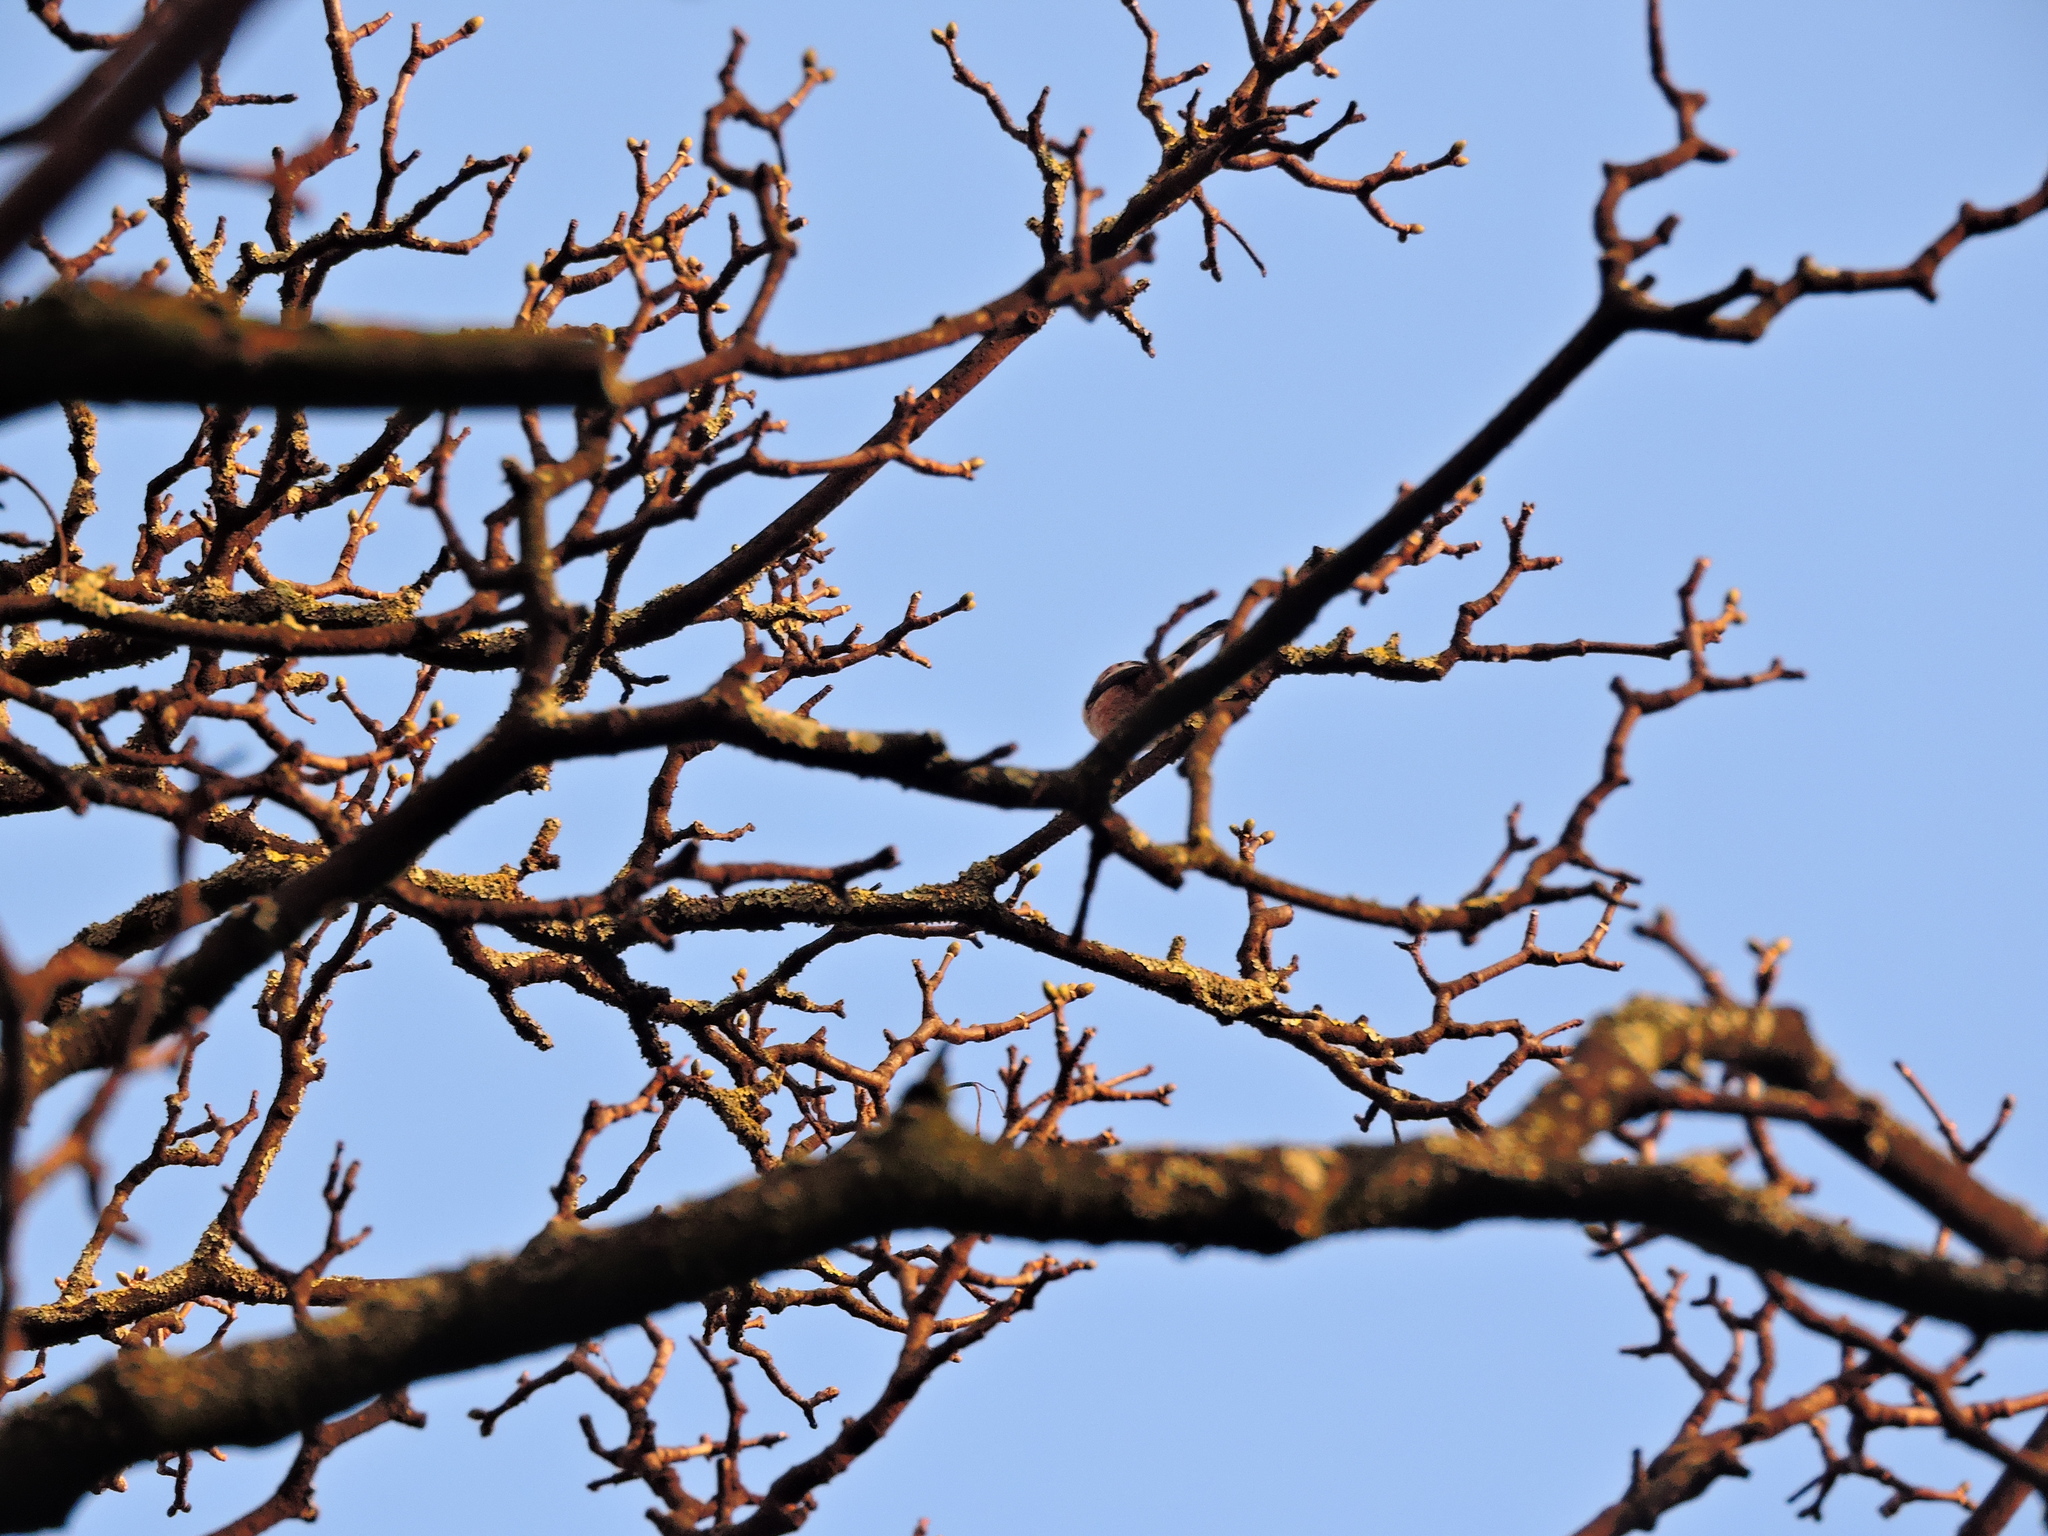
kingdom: Animalia
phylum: Chordata
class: Aves
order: Passeriformes
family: Aegithalidae
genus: Aegithalos
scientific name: Aegithalos caudatus
